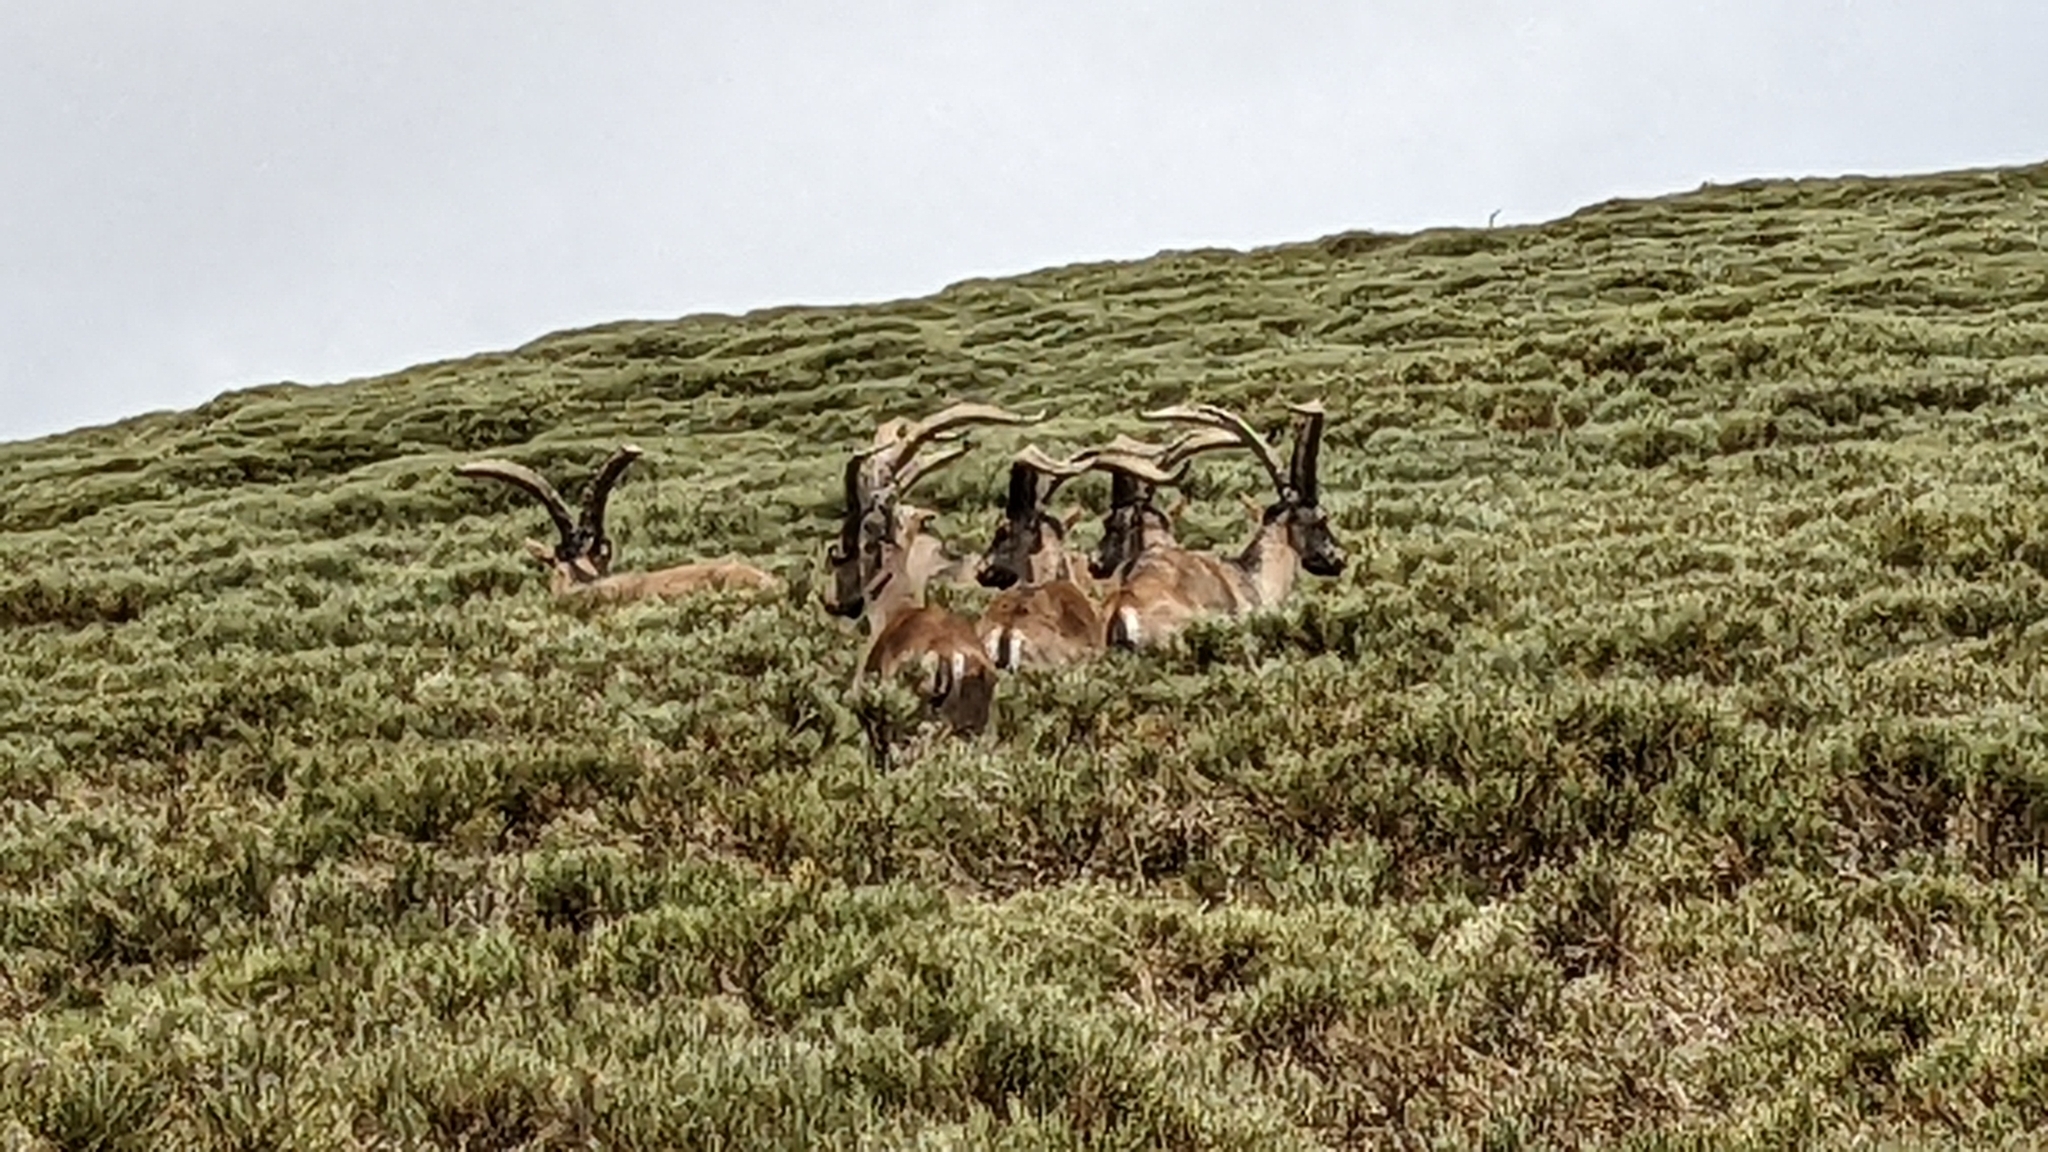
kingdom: Animalia
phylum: Chordata
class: Mammalia
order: Artiodactyla
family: Bovidae
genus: Capra
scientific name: Capra pyrenaica
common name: Spanish ibex
